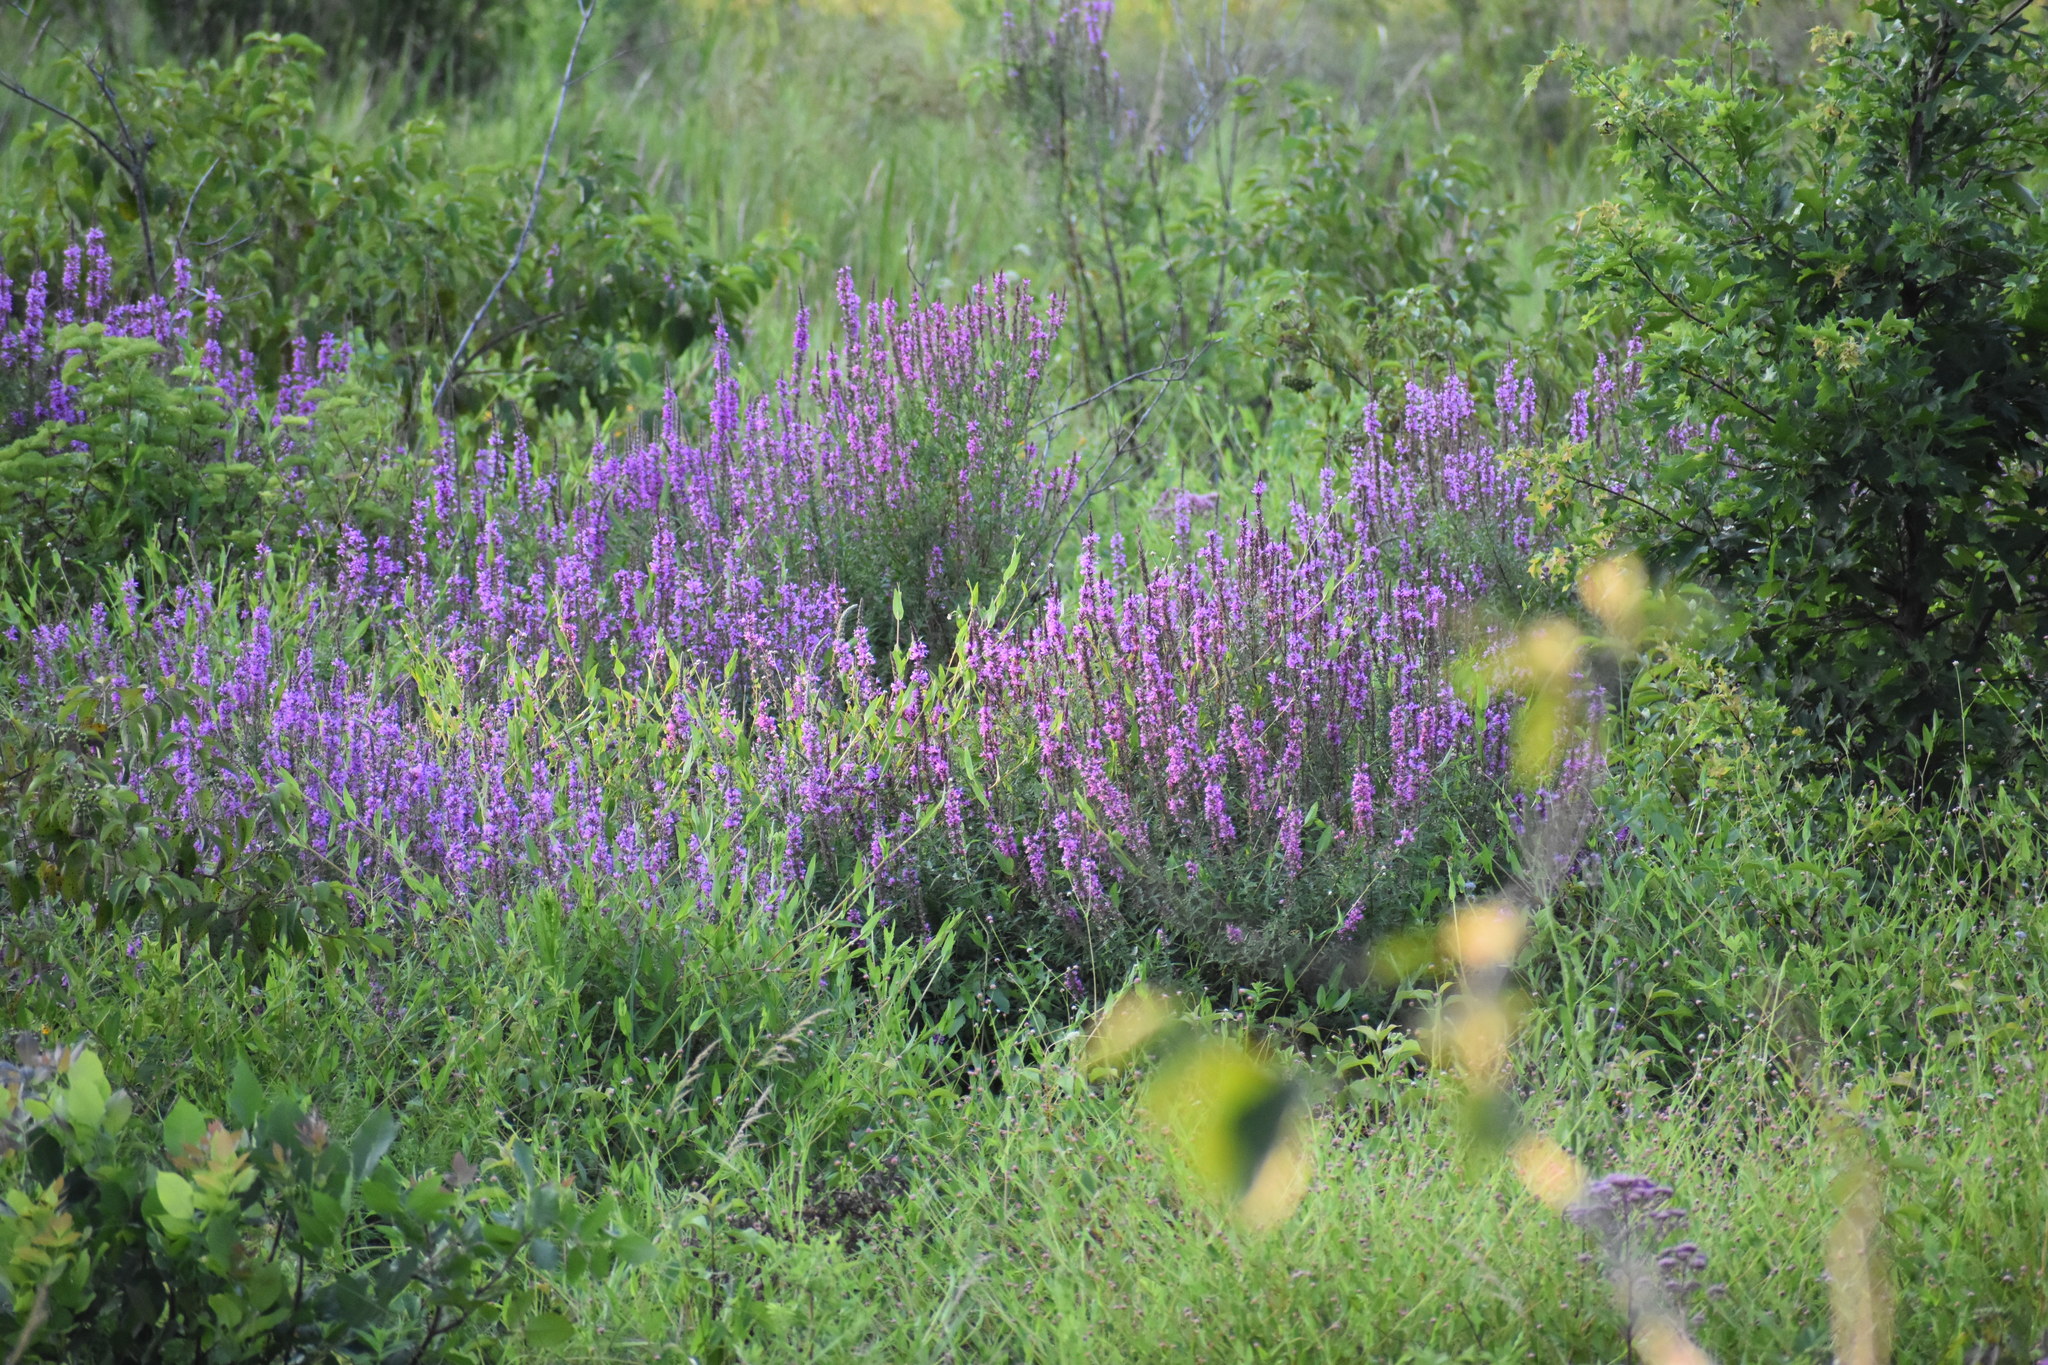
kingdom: Plantae
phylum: Tracheophyta
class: Magnoliopsida
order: Myrtales
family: Lythraceae
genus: Lythrum
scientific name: Lythrum salicaria
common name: Purple loosestrife
